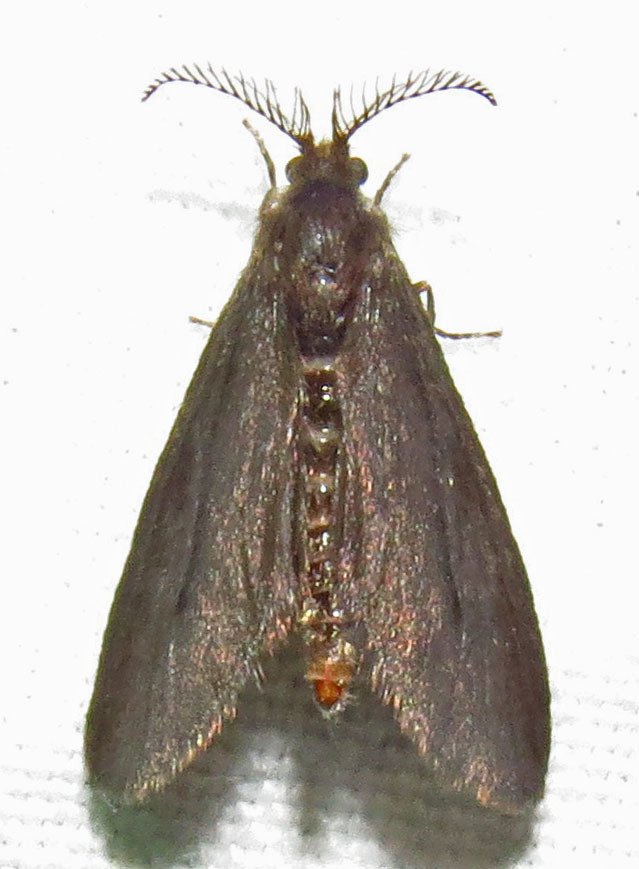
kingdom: Animalia
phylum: Arthropoda
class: Insecta
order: Lepidoptera
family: Psychidae
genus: Cryptothelea
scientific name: Cryptothelea nigrita
